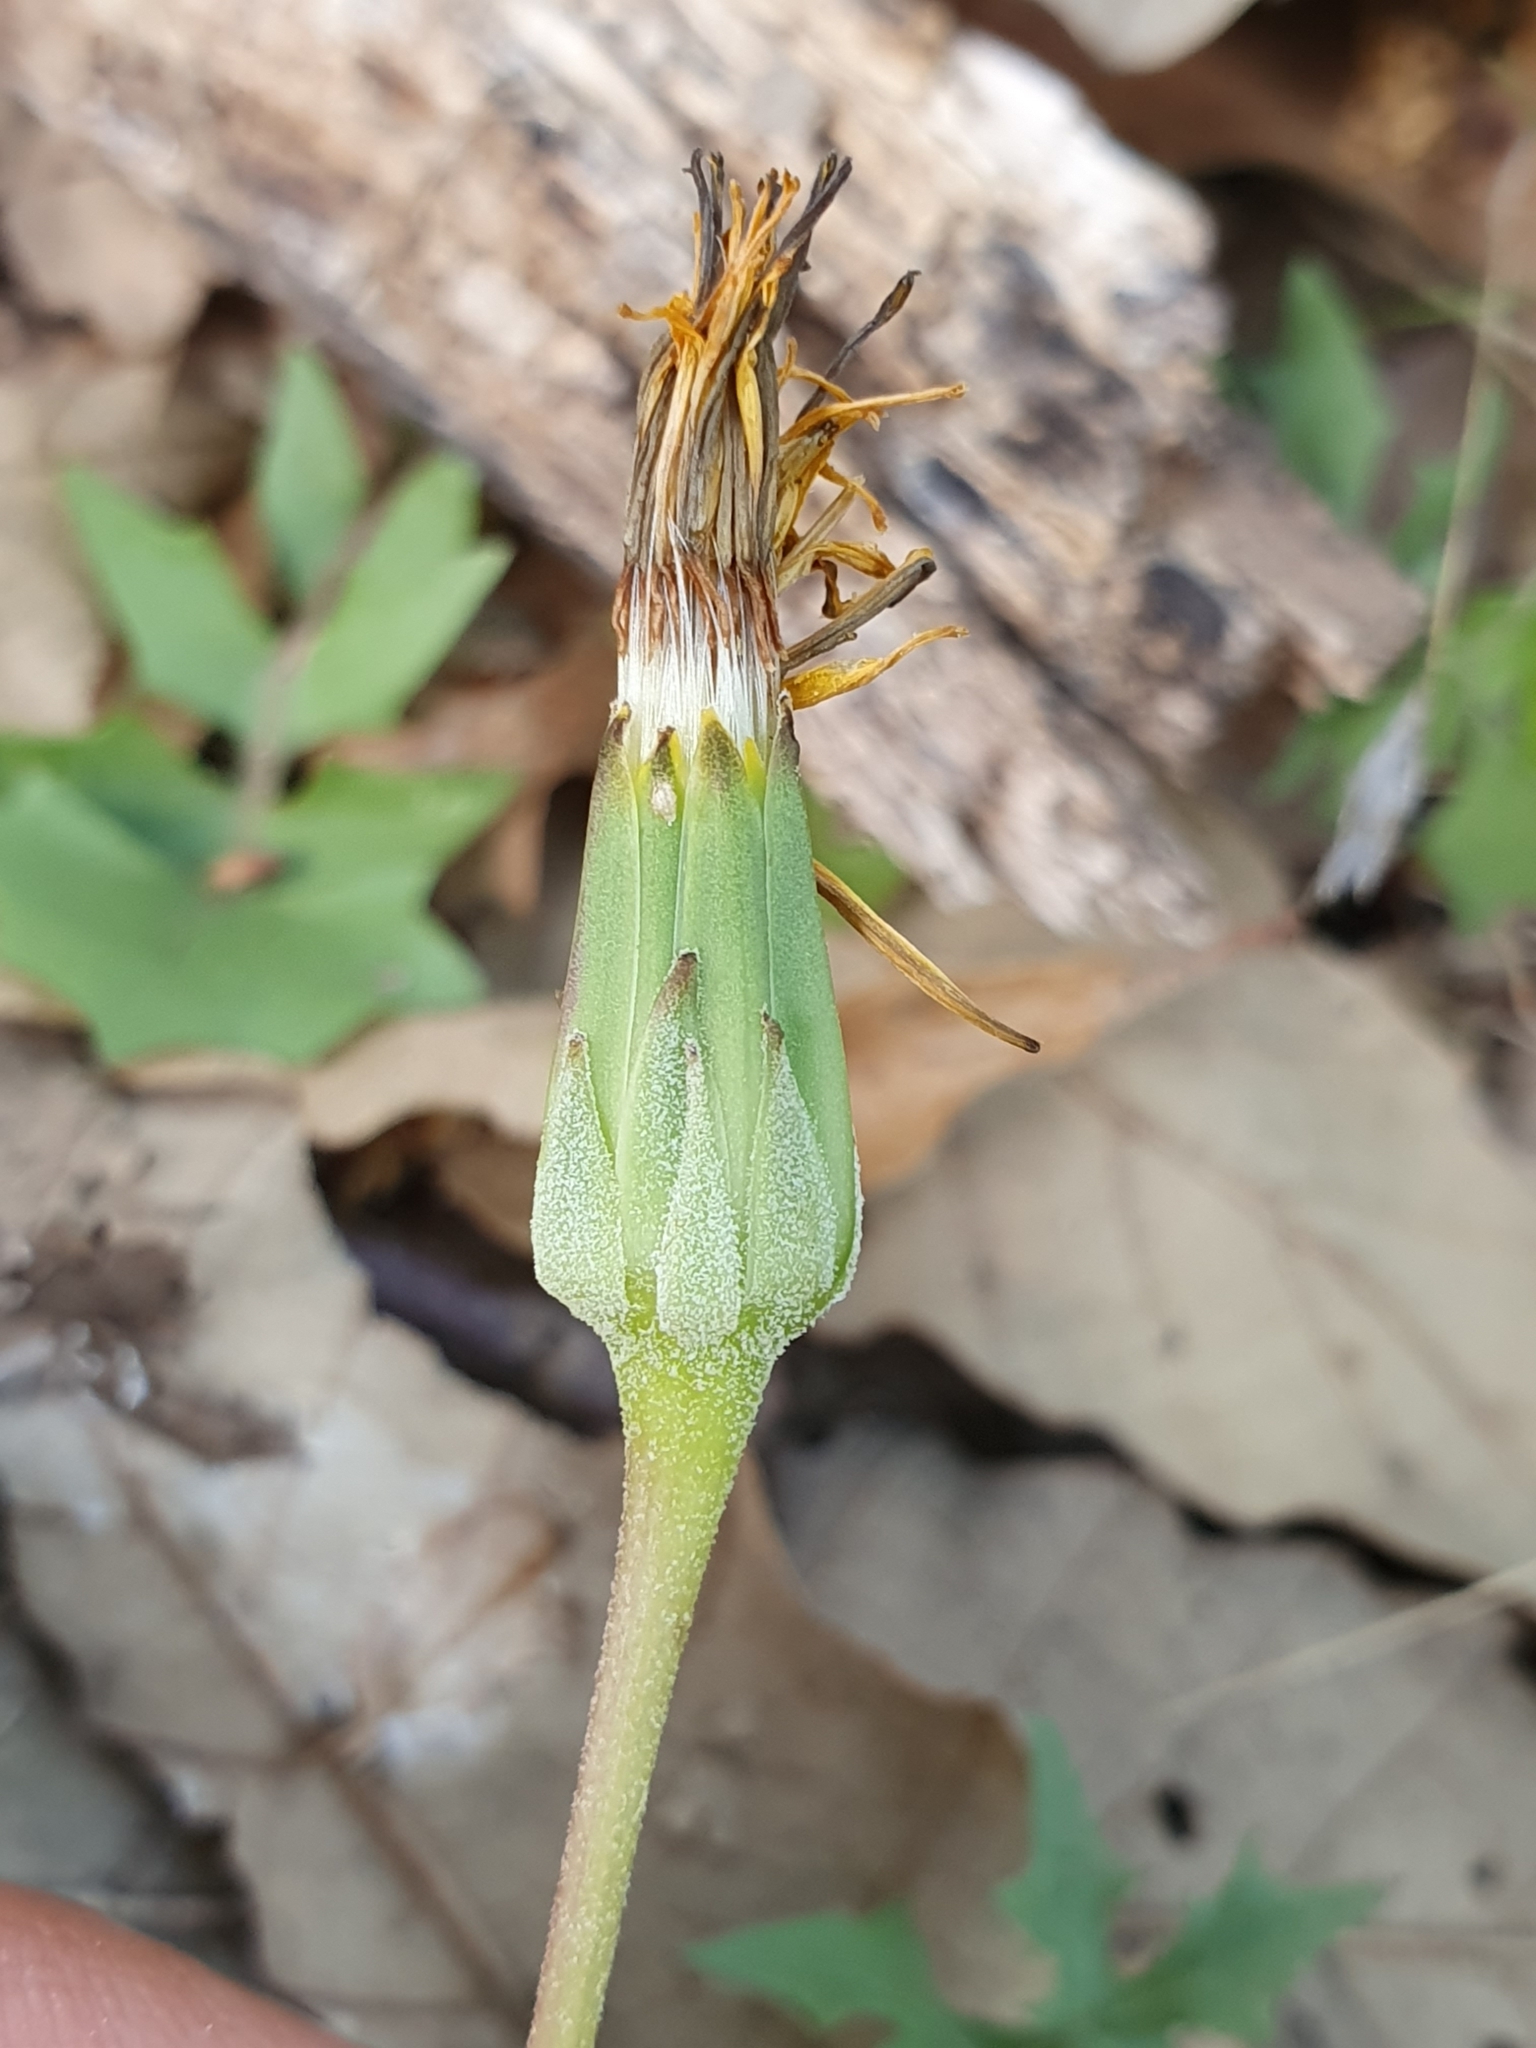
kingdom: Plantae
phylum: Tracheophyta
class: Magnoliopsida
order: Asterales
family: Asteraceae
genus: Hyoseris
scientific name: Hyoseris radiata
